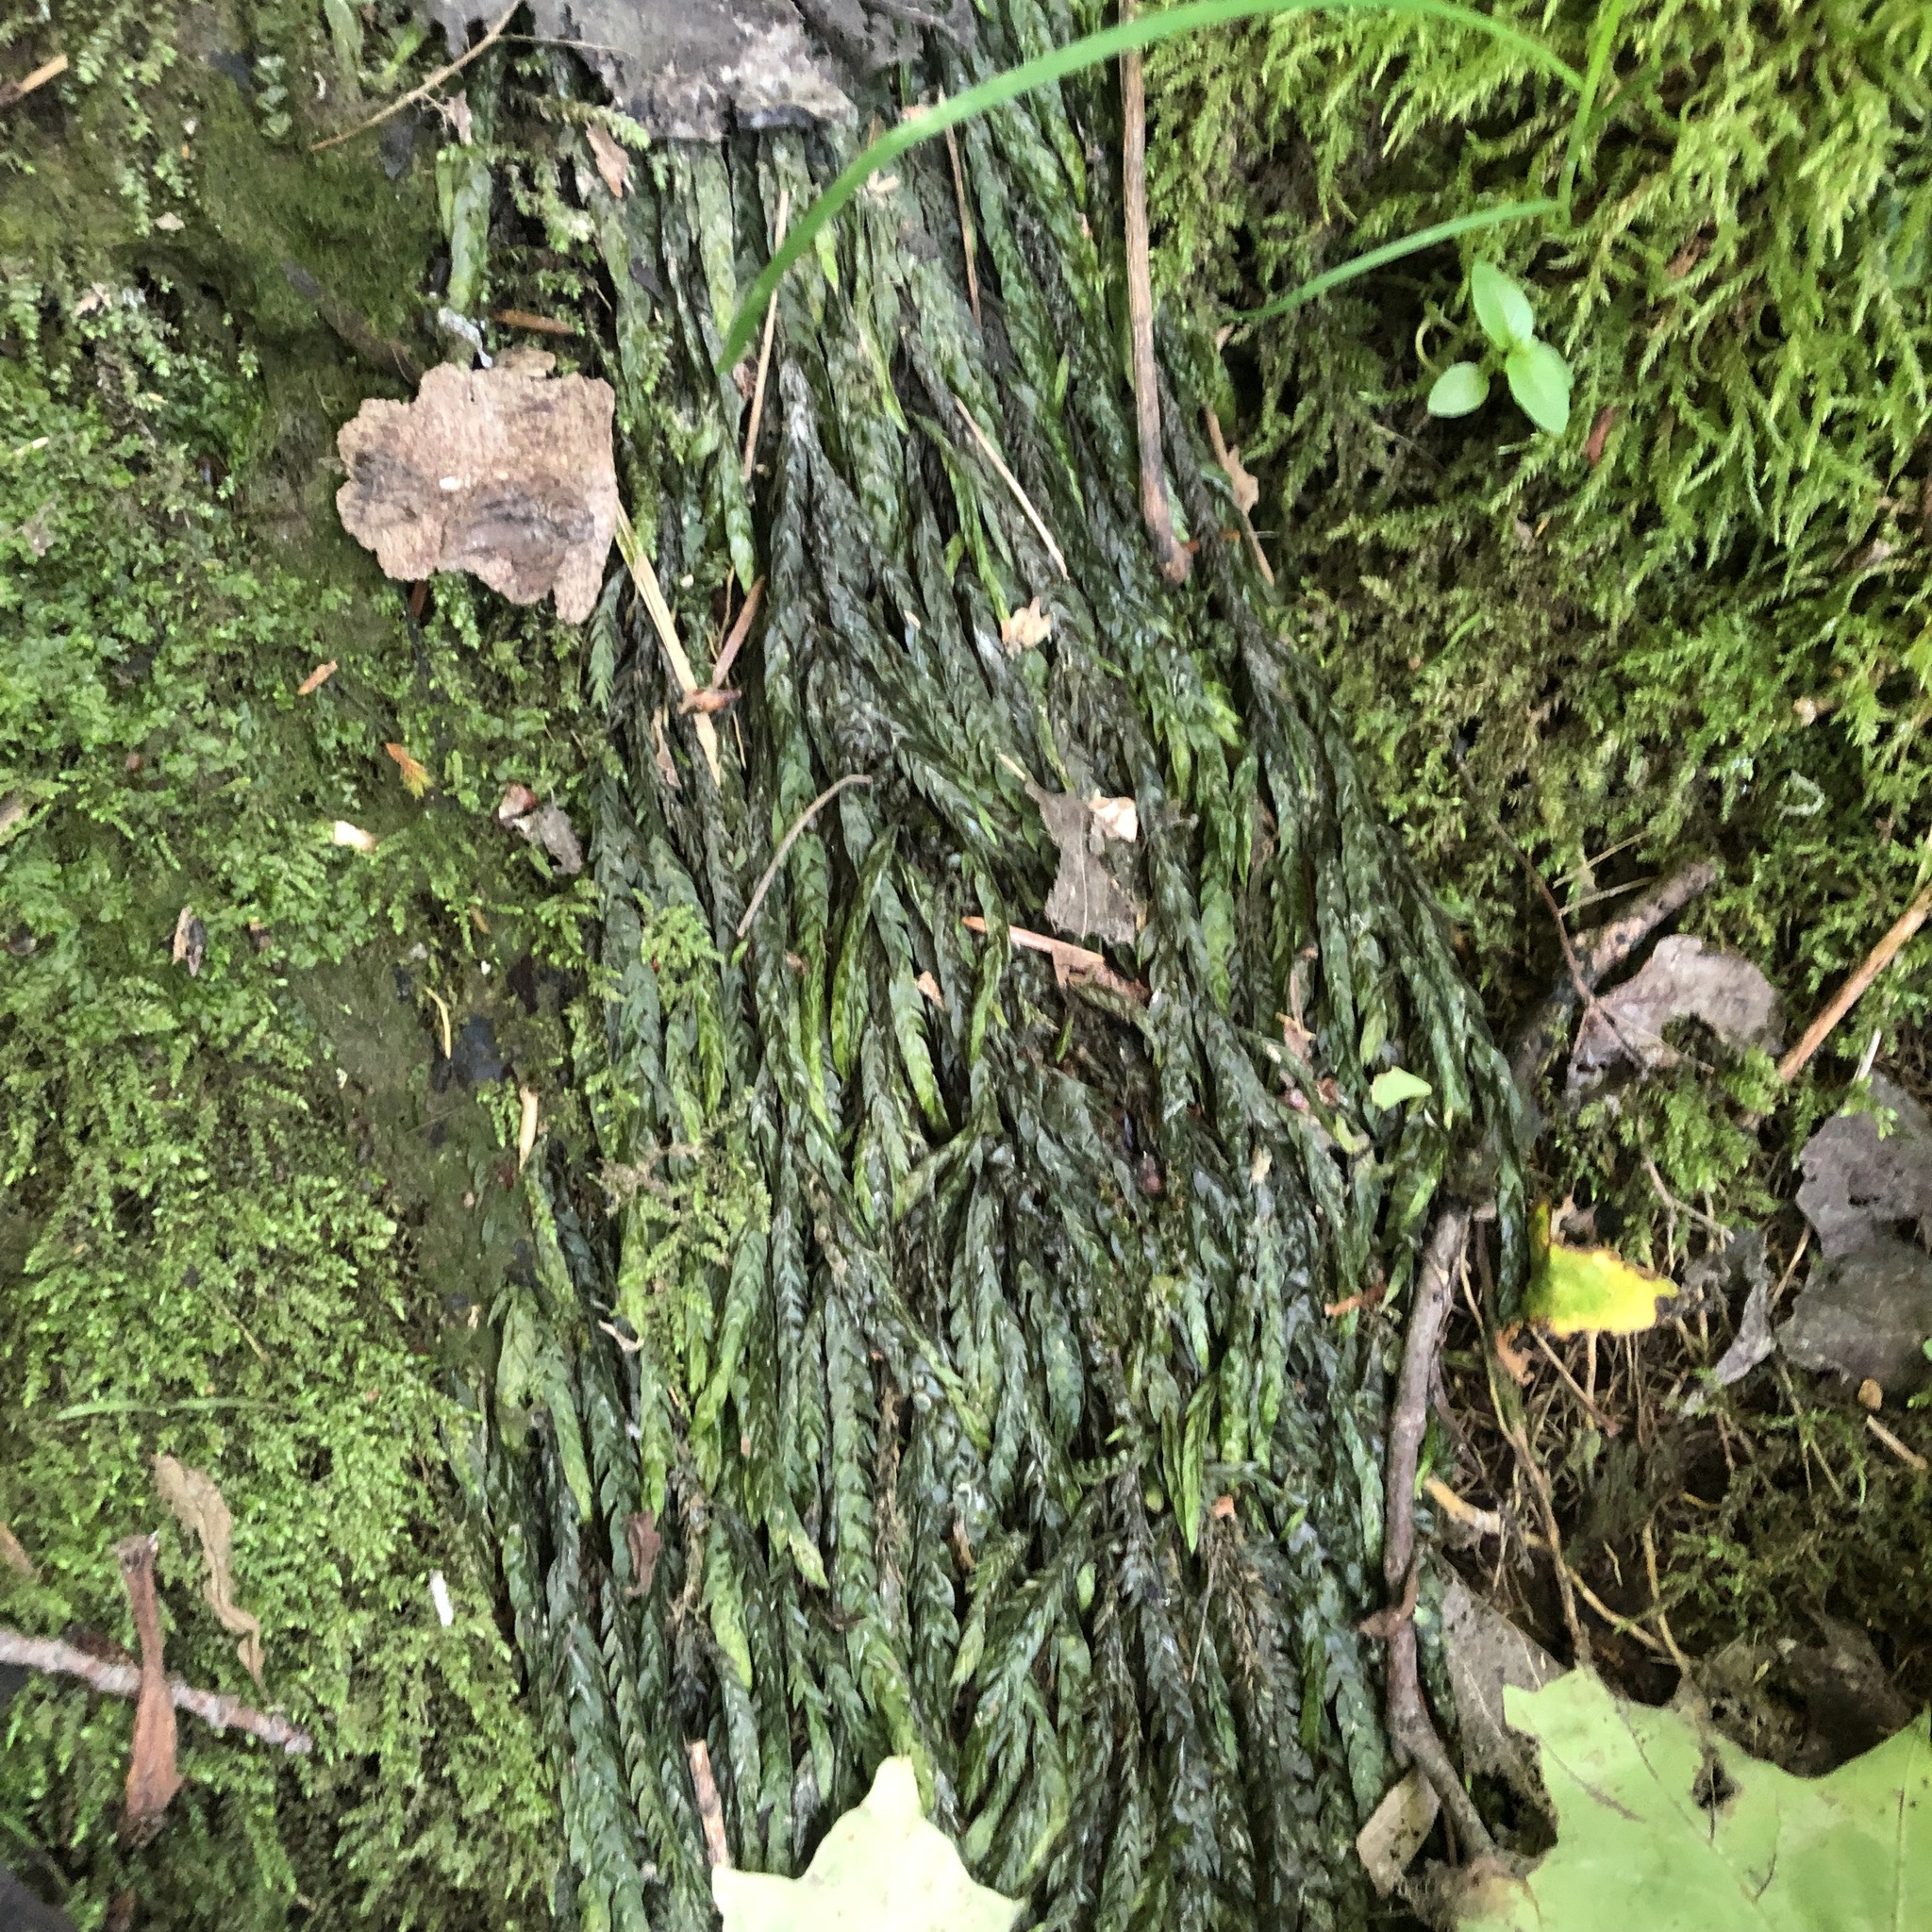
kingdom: Plantae
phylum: Bryophyta
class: Bryopsida
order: Hypnales
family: Fontinalaceae
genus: Fontinalis
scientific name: Fontinalis antipyretica
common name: Greater water-moss
